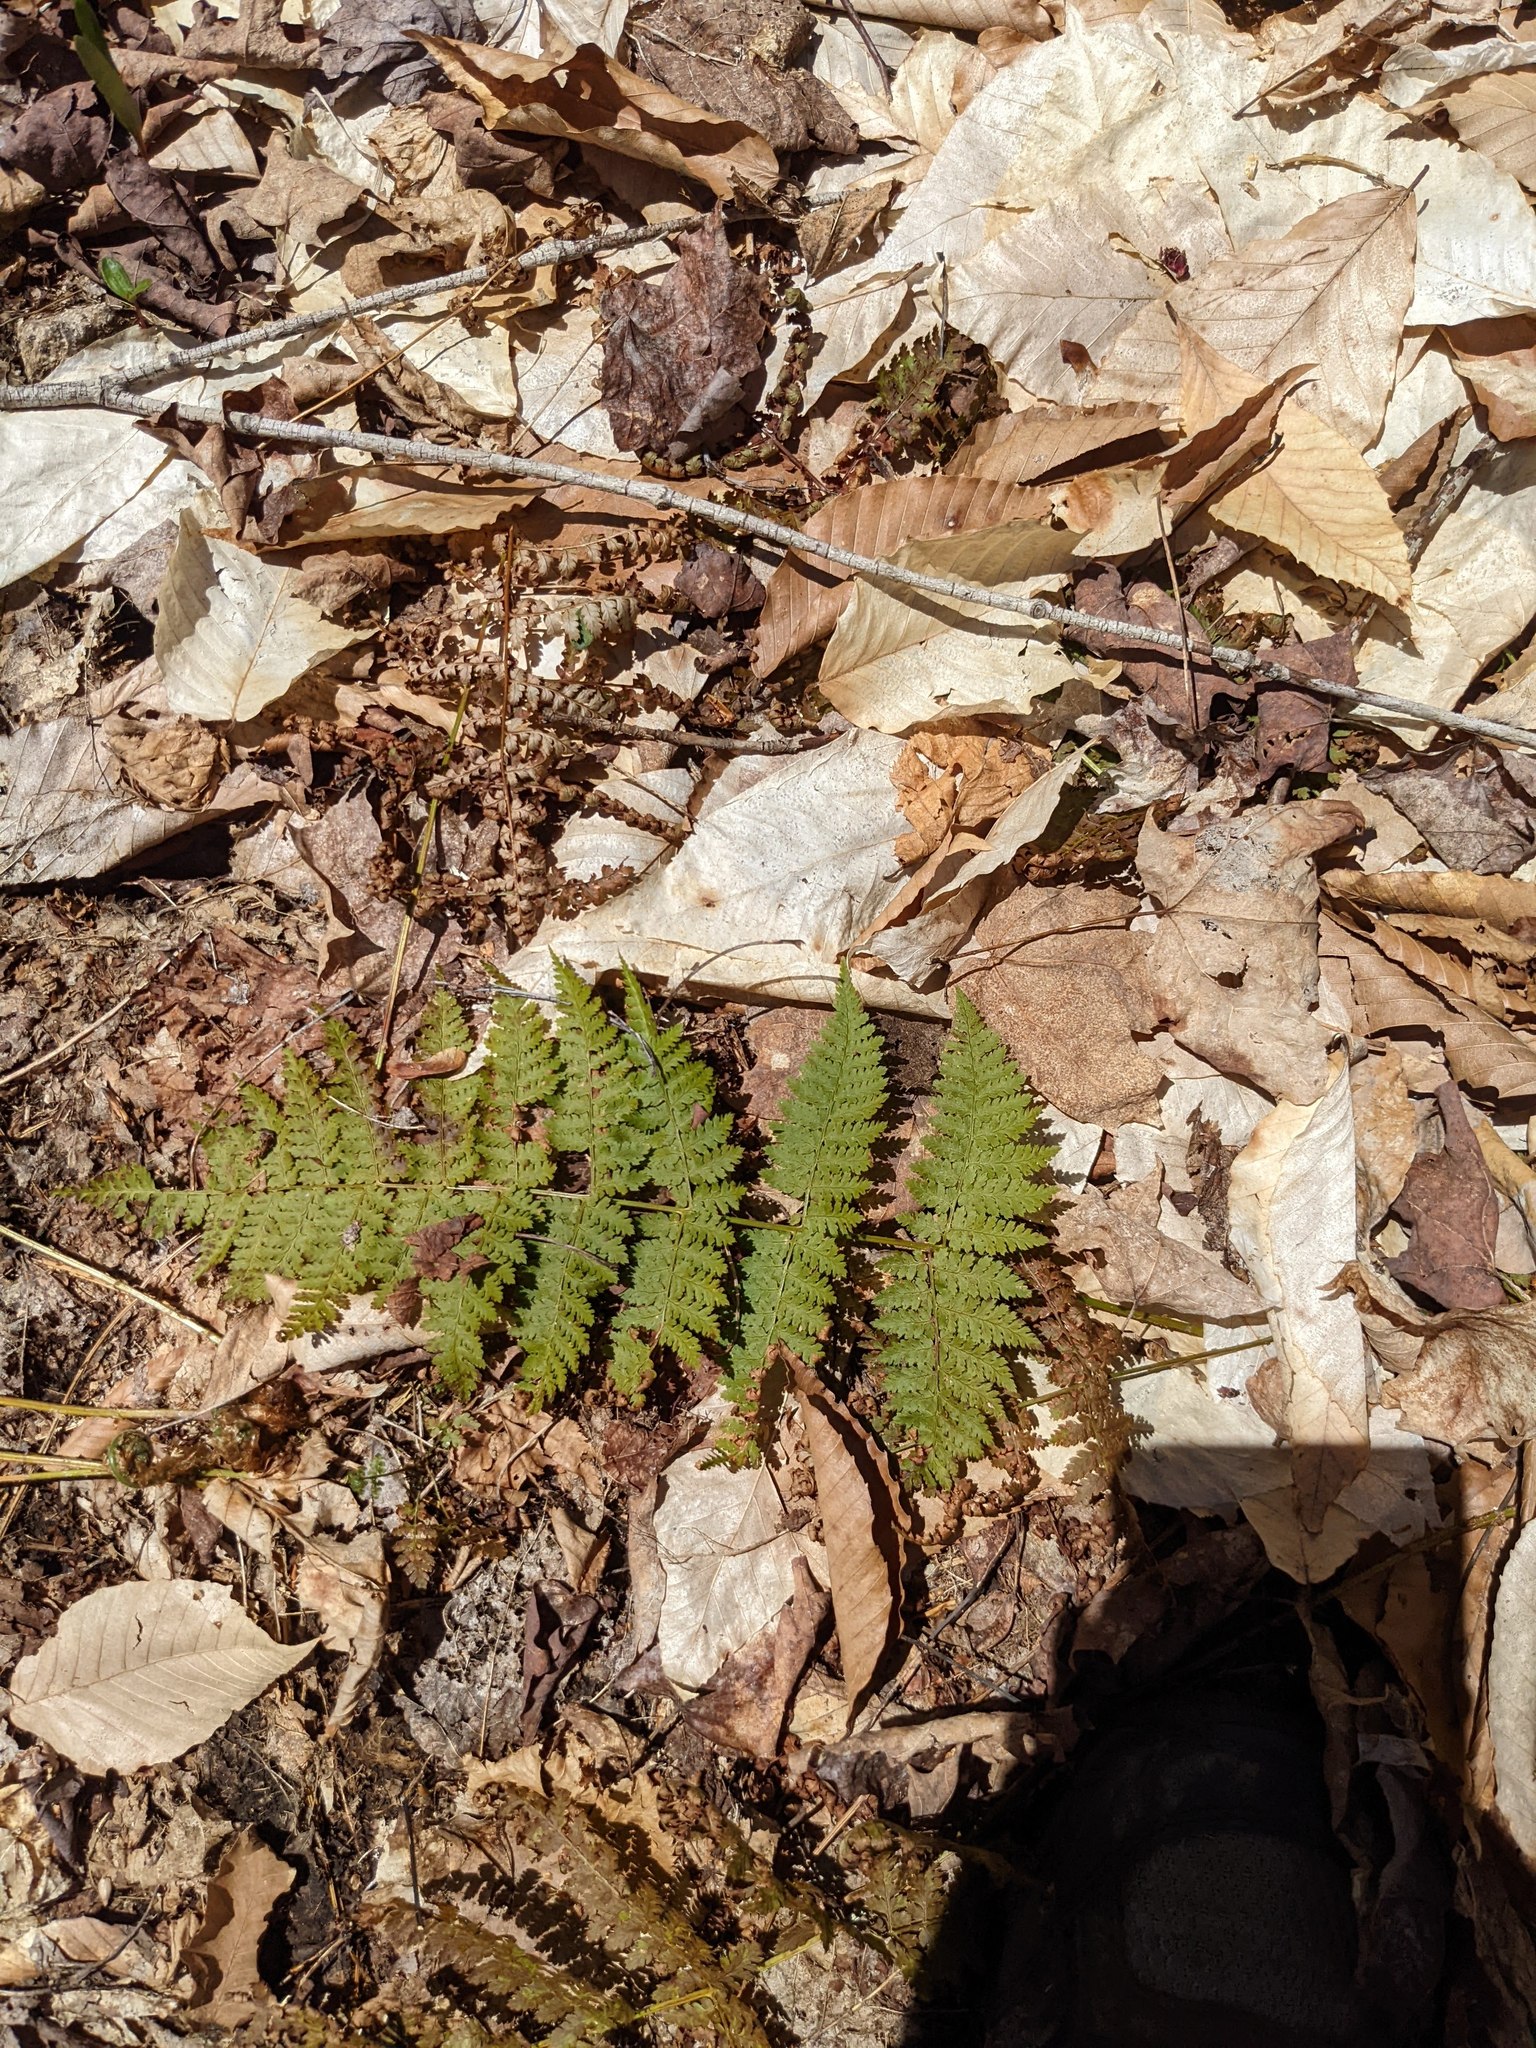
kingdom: Plantae
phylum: Tracheophyta
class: Magnoliopsida
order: Fagales
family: Fagaceae
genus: Fagus
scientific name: Fagus grandifolia
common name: American beech
